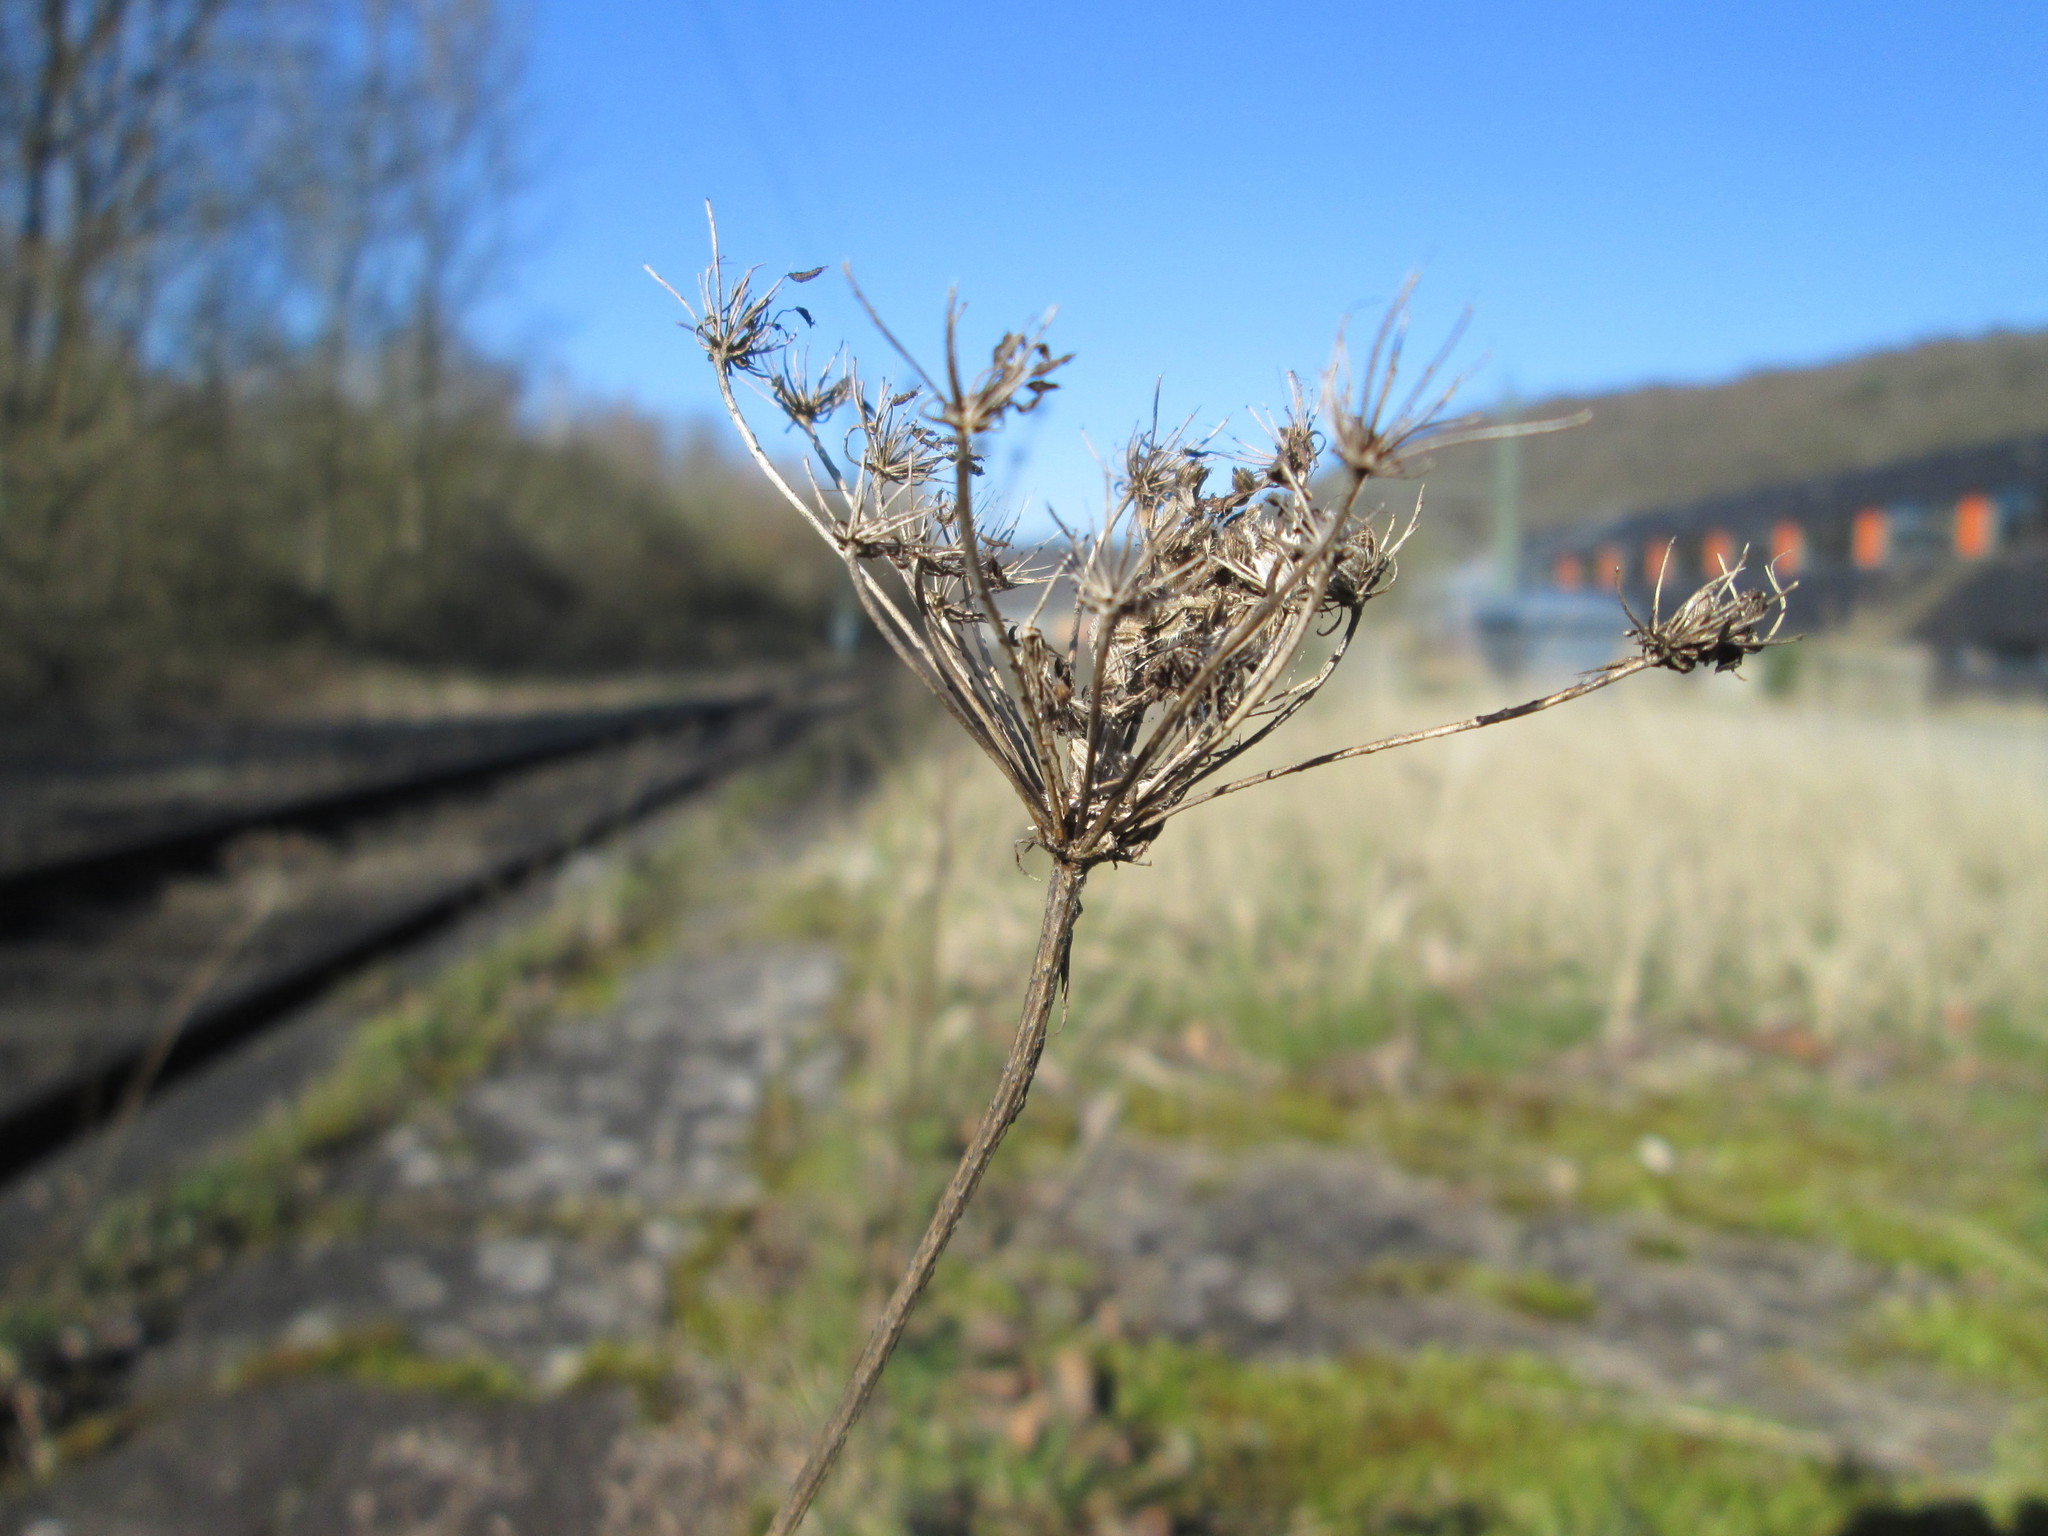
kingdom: Plantae
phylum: Tracheophyta
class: Magnoliopsida
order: Apiales
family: Apiaceae
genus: Daucus
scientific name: Daucus carota
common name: Wild carrot
